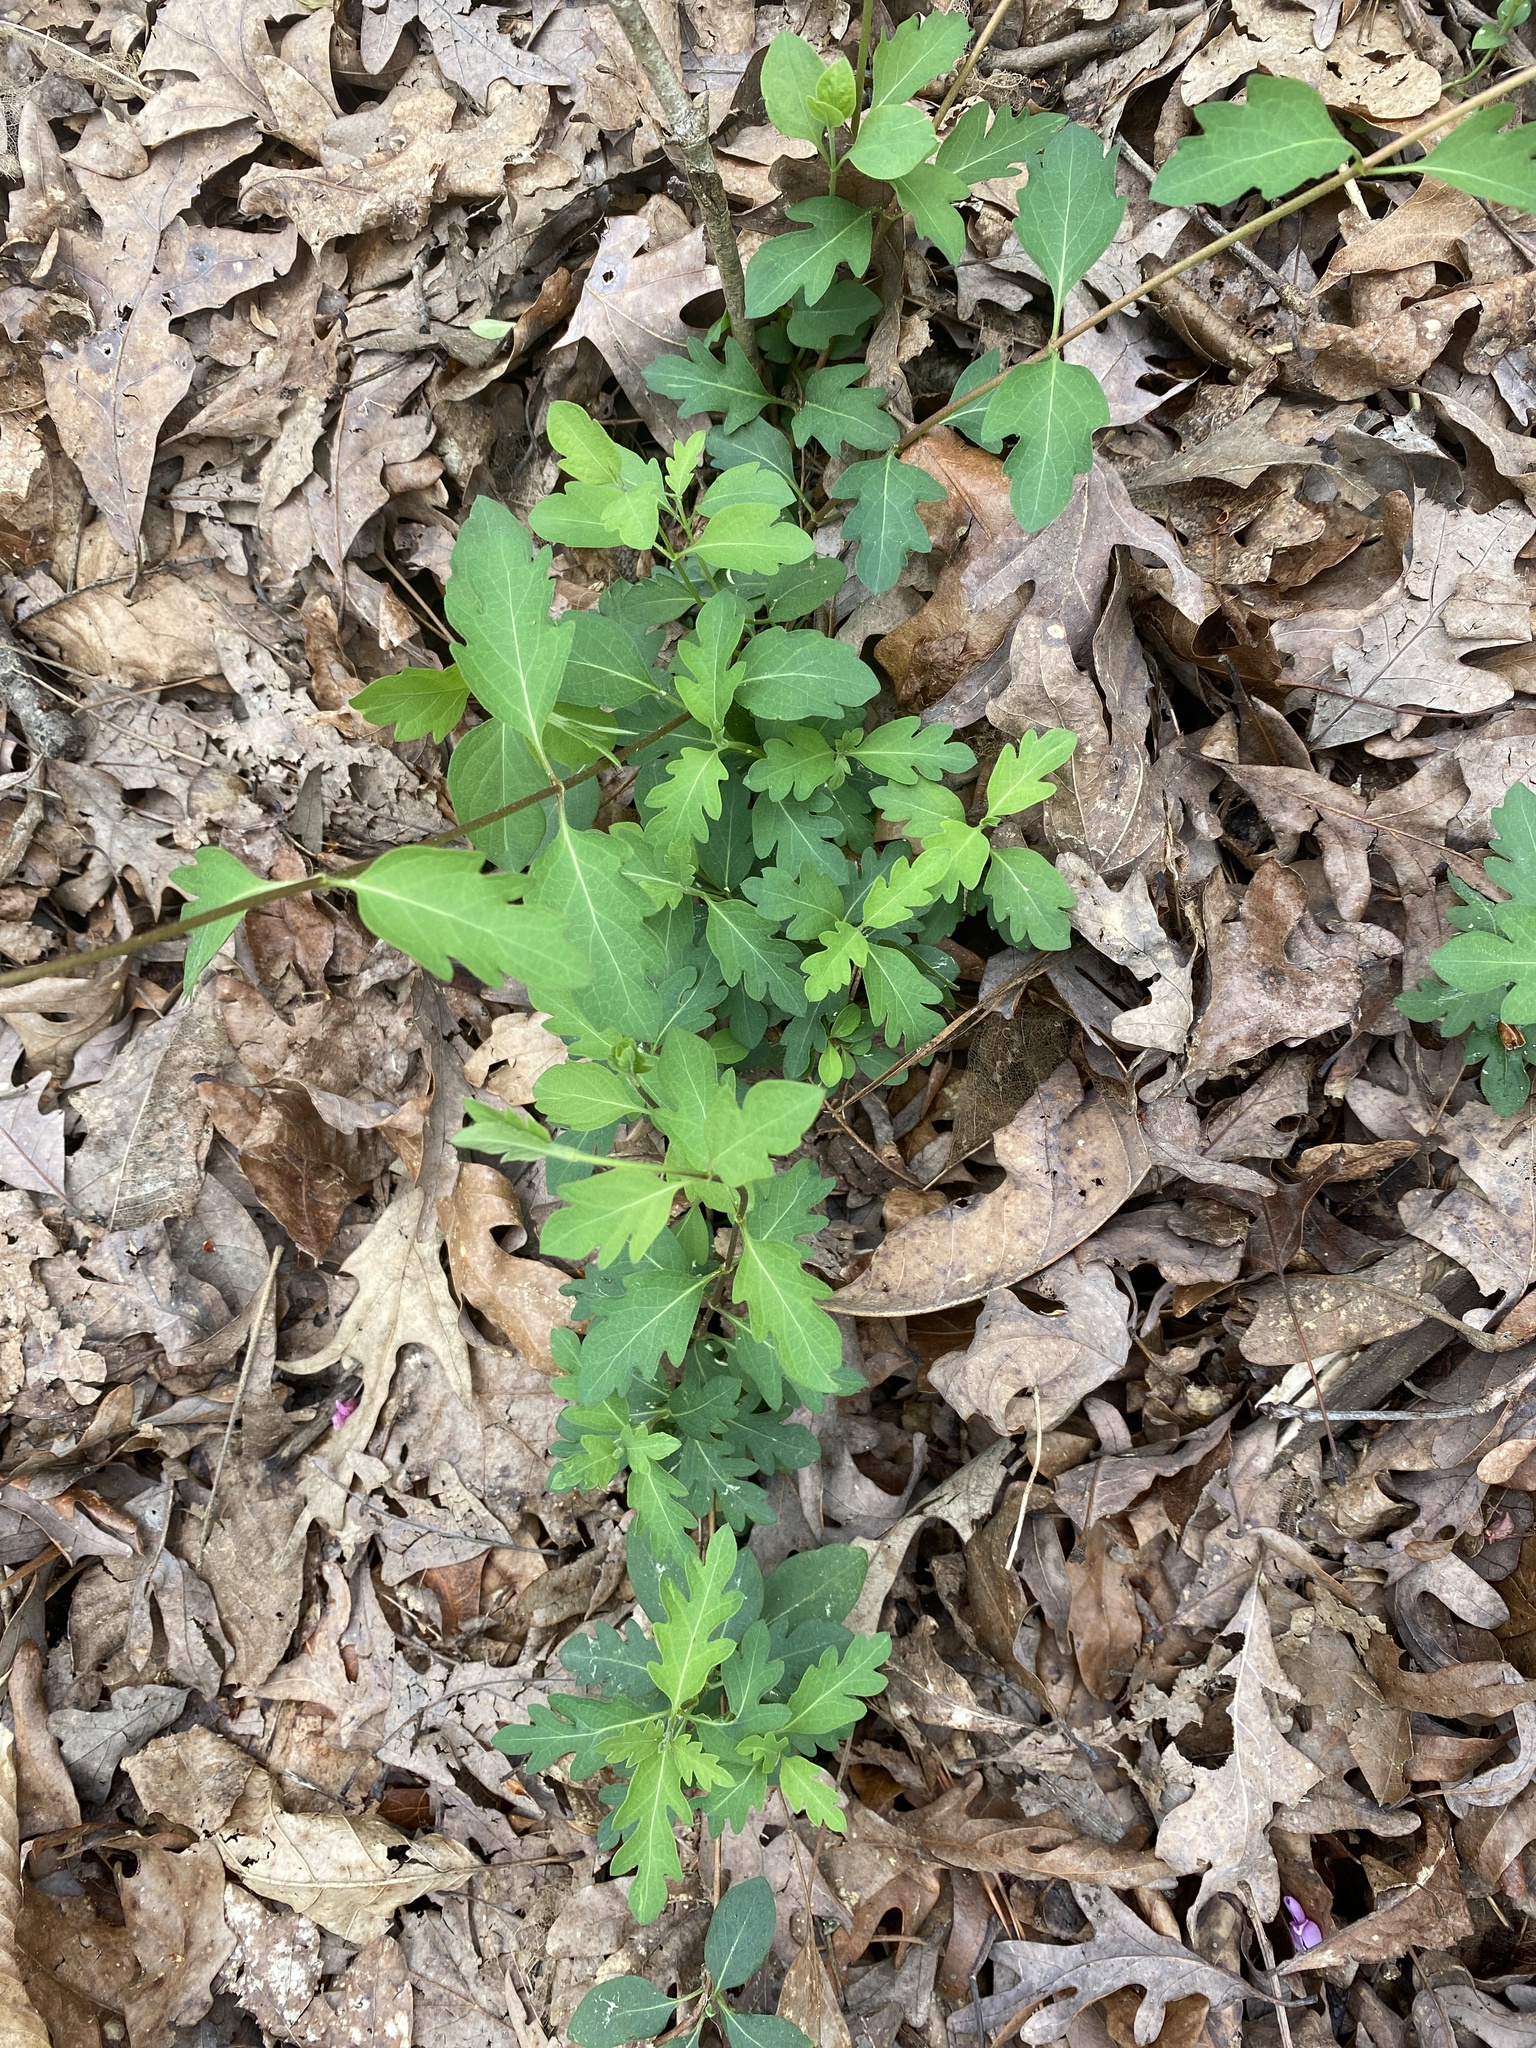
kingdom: Plantae
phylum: Tracheophyta
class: Magnoliopsida
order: Dipsacales
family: Caprifoliaceae
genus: Lonicera
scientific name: Lonicera japonica
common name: Japanese honeysuckle
